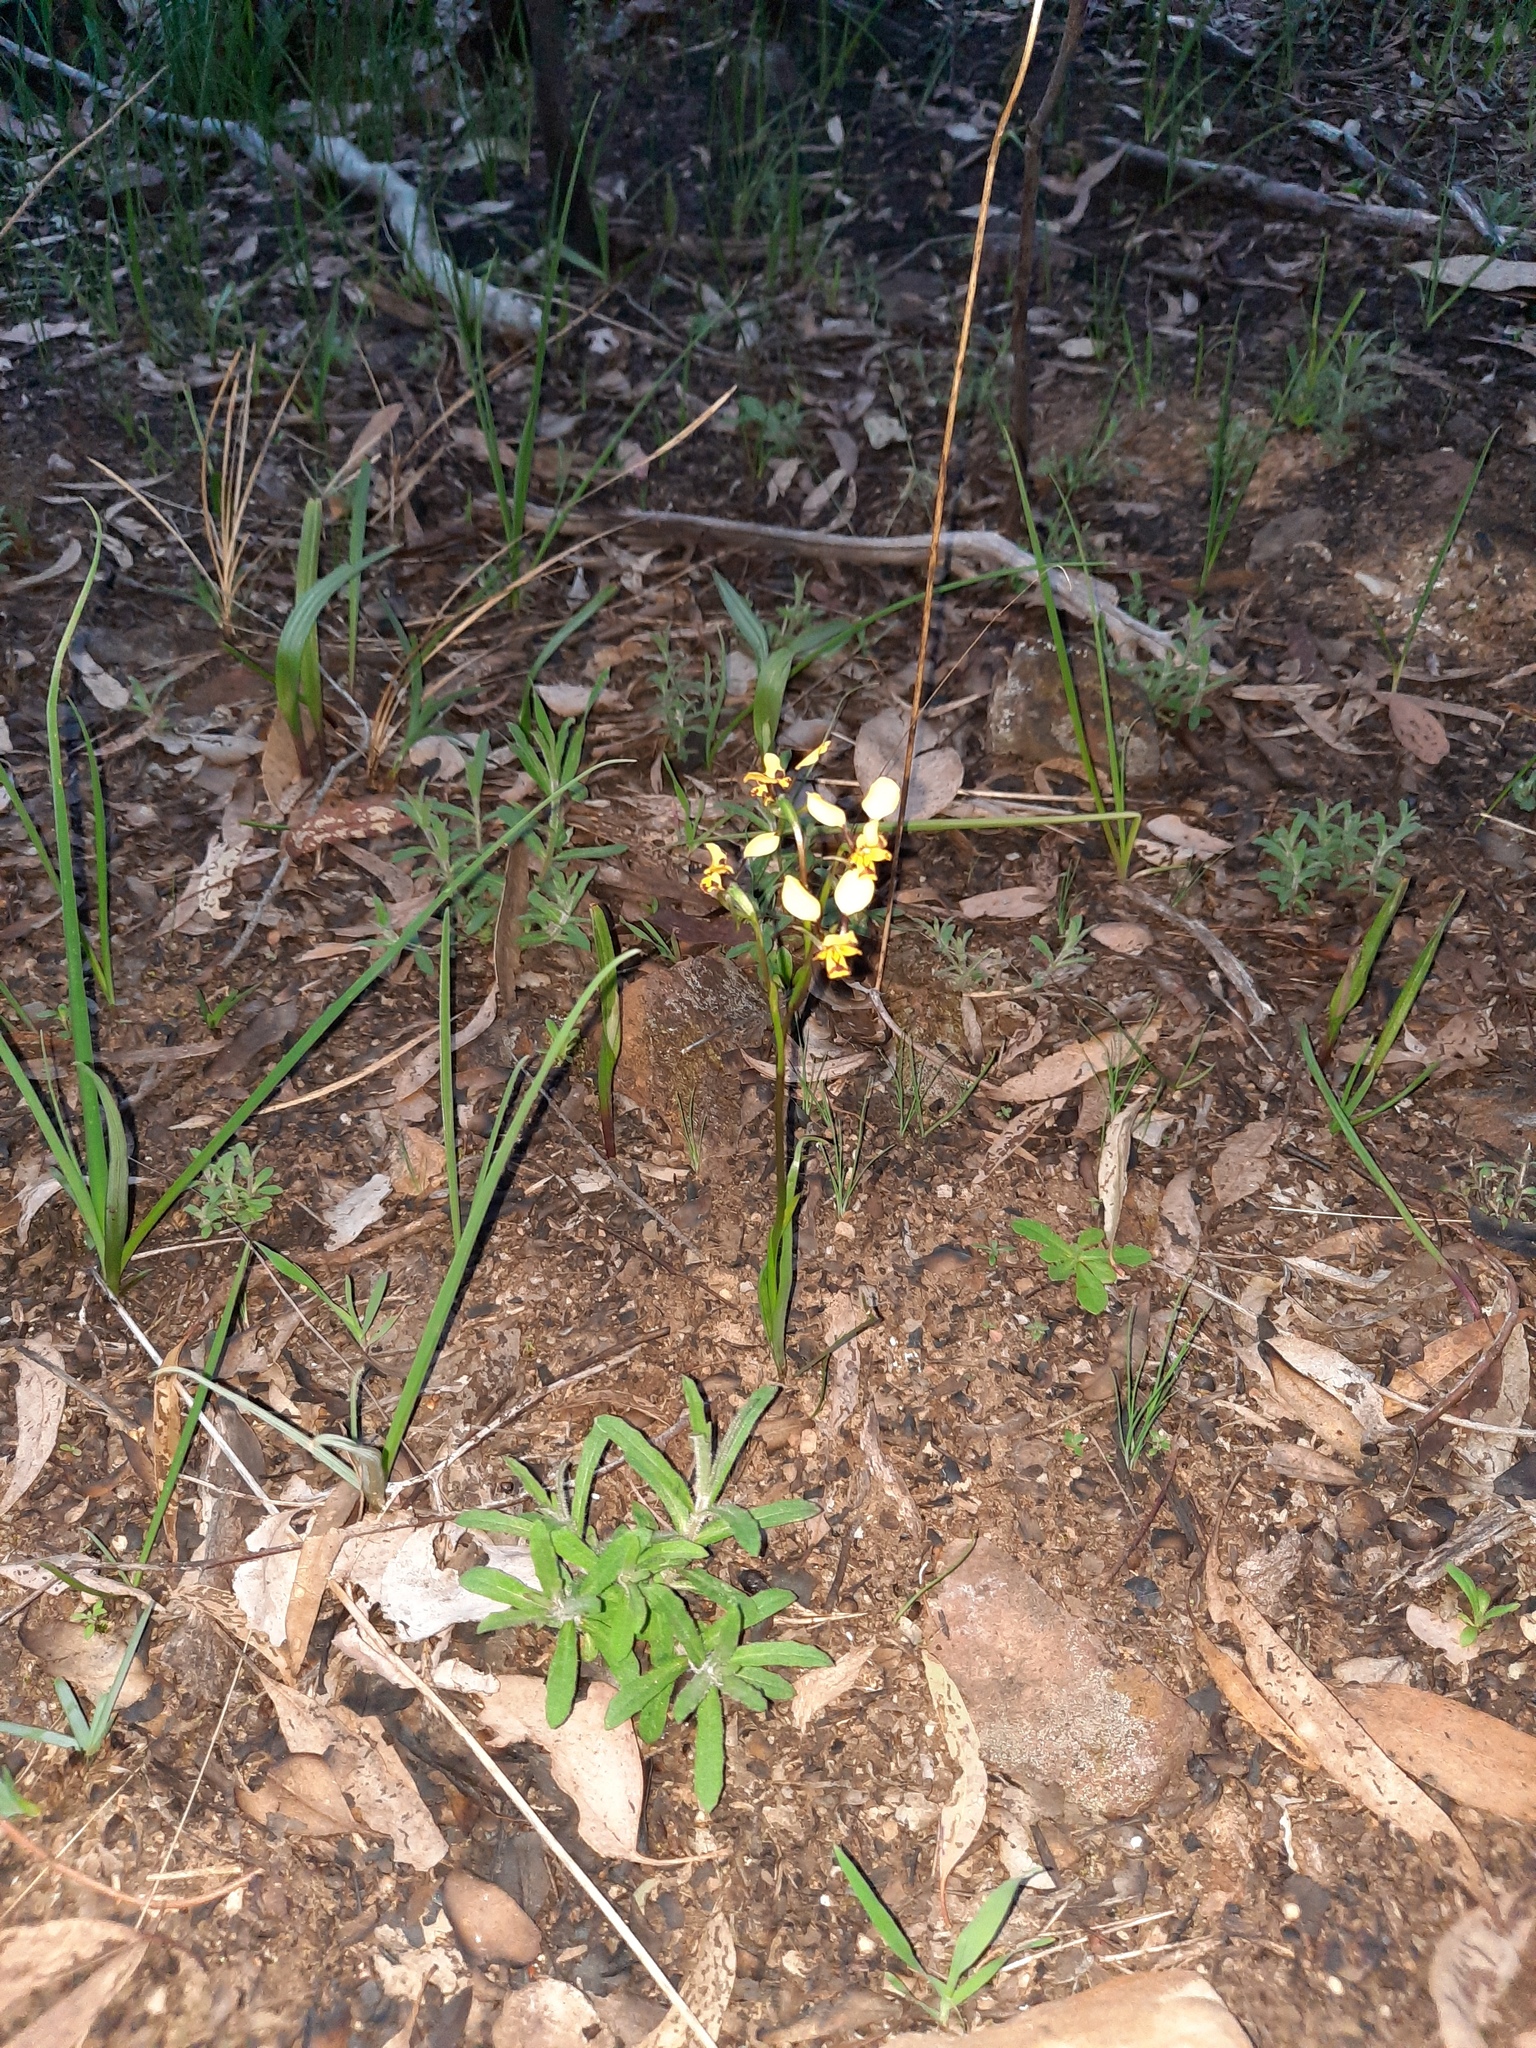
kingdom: Plantae
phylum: Tracheophyta
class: Liliopsida
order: Asparagales
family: Orchidaceae
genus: Diuris
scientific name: Diuris pardina
